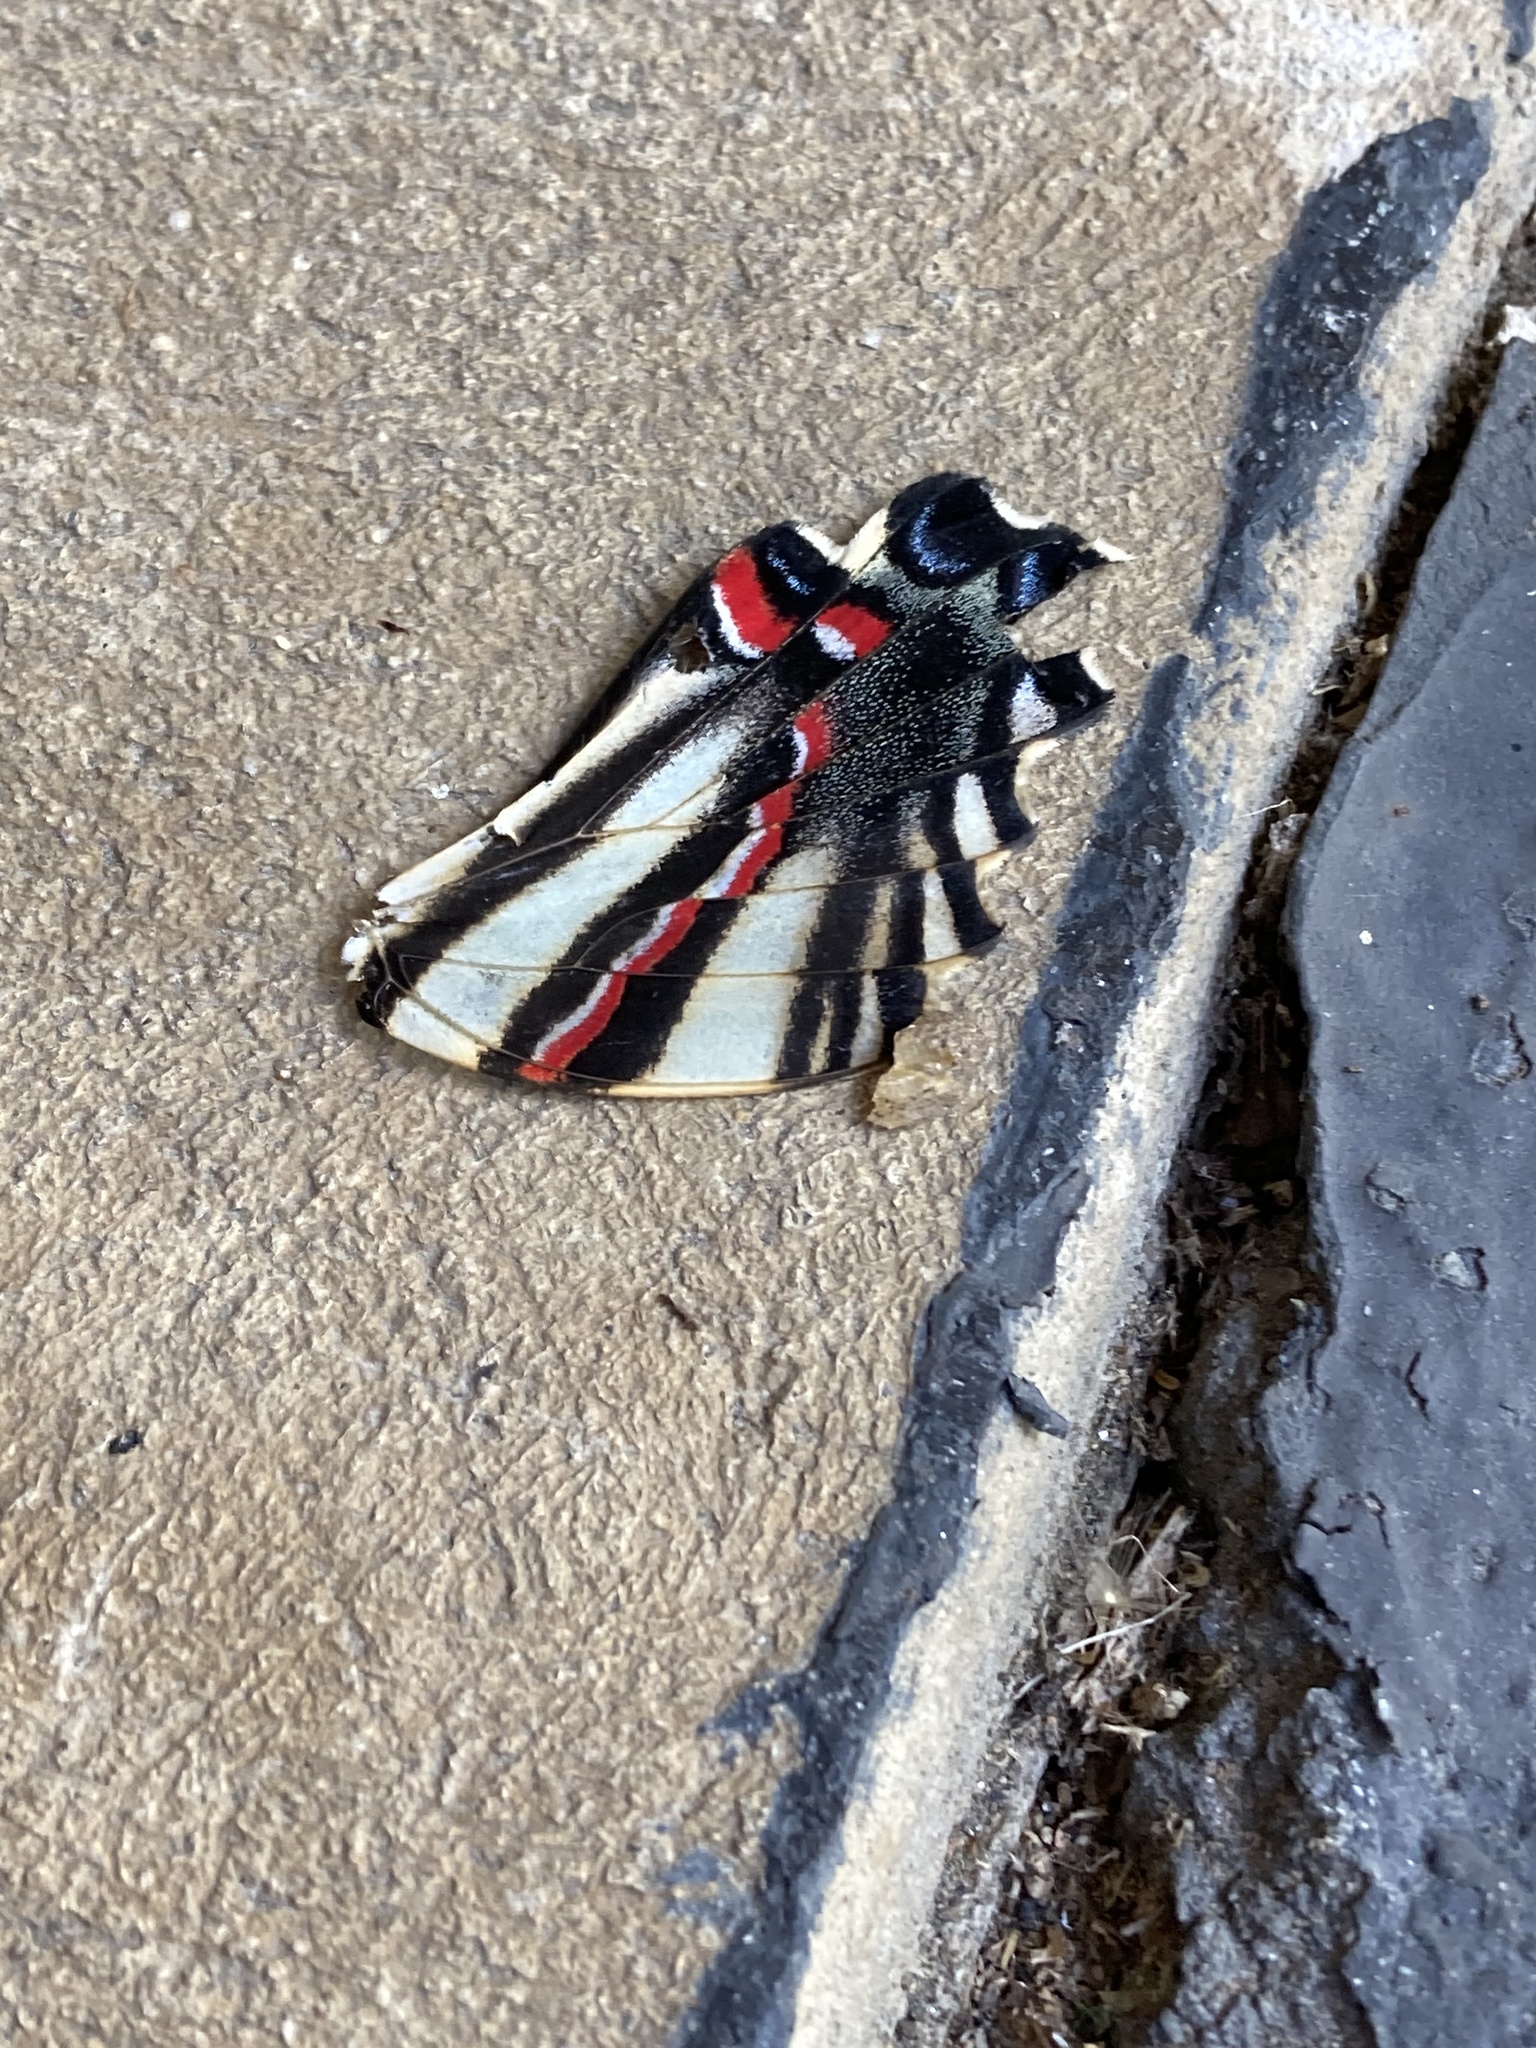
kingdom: Animalia
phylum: Arthropoda
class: Insecta
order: Lepidoptera
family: Papilionidae
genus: Protographium
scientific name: Protographium marcellus
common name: Zebra swallowtail
